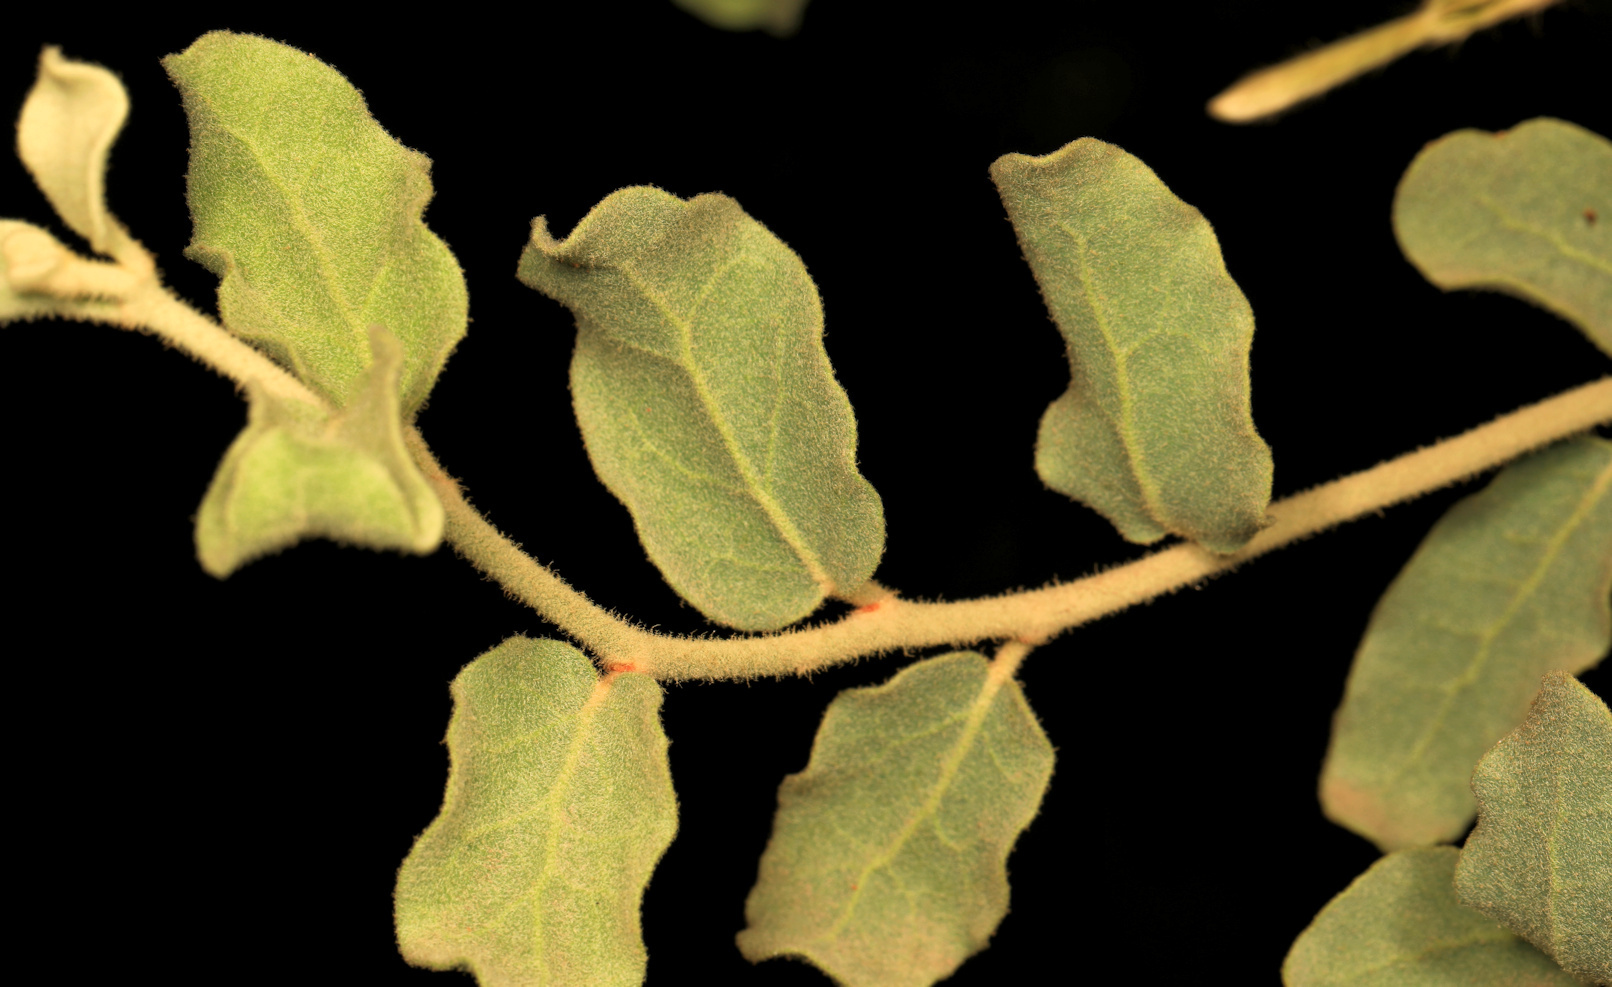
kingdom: Plantae
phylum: Tracheophyta
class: Magnoliopsida
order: Santalales
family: Loranthaceae
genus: Erianthemum
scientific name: Erianthemum ngamicum
